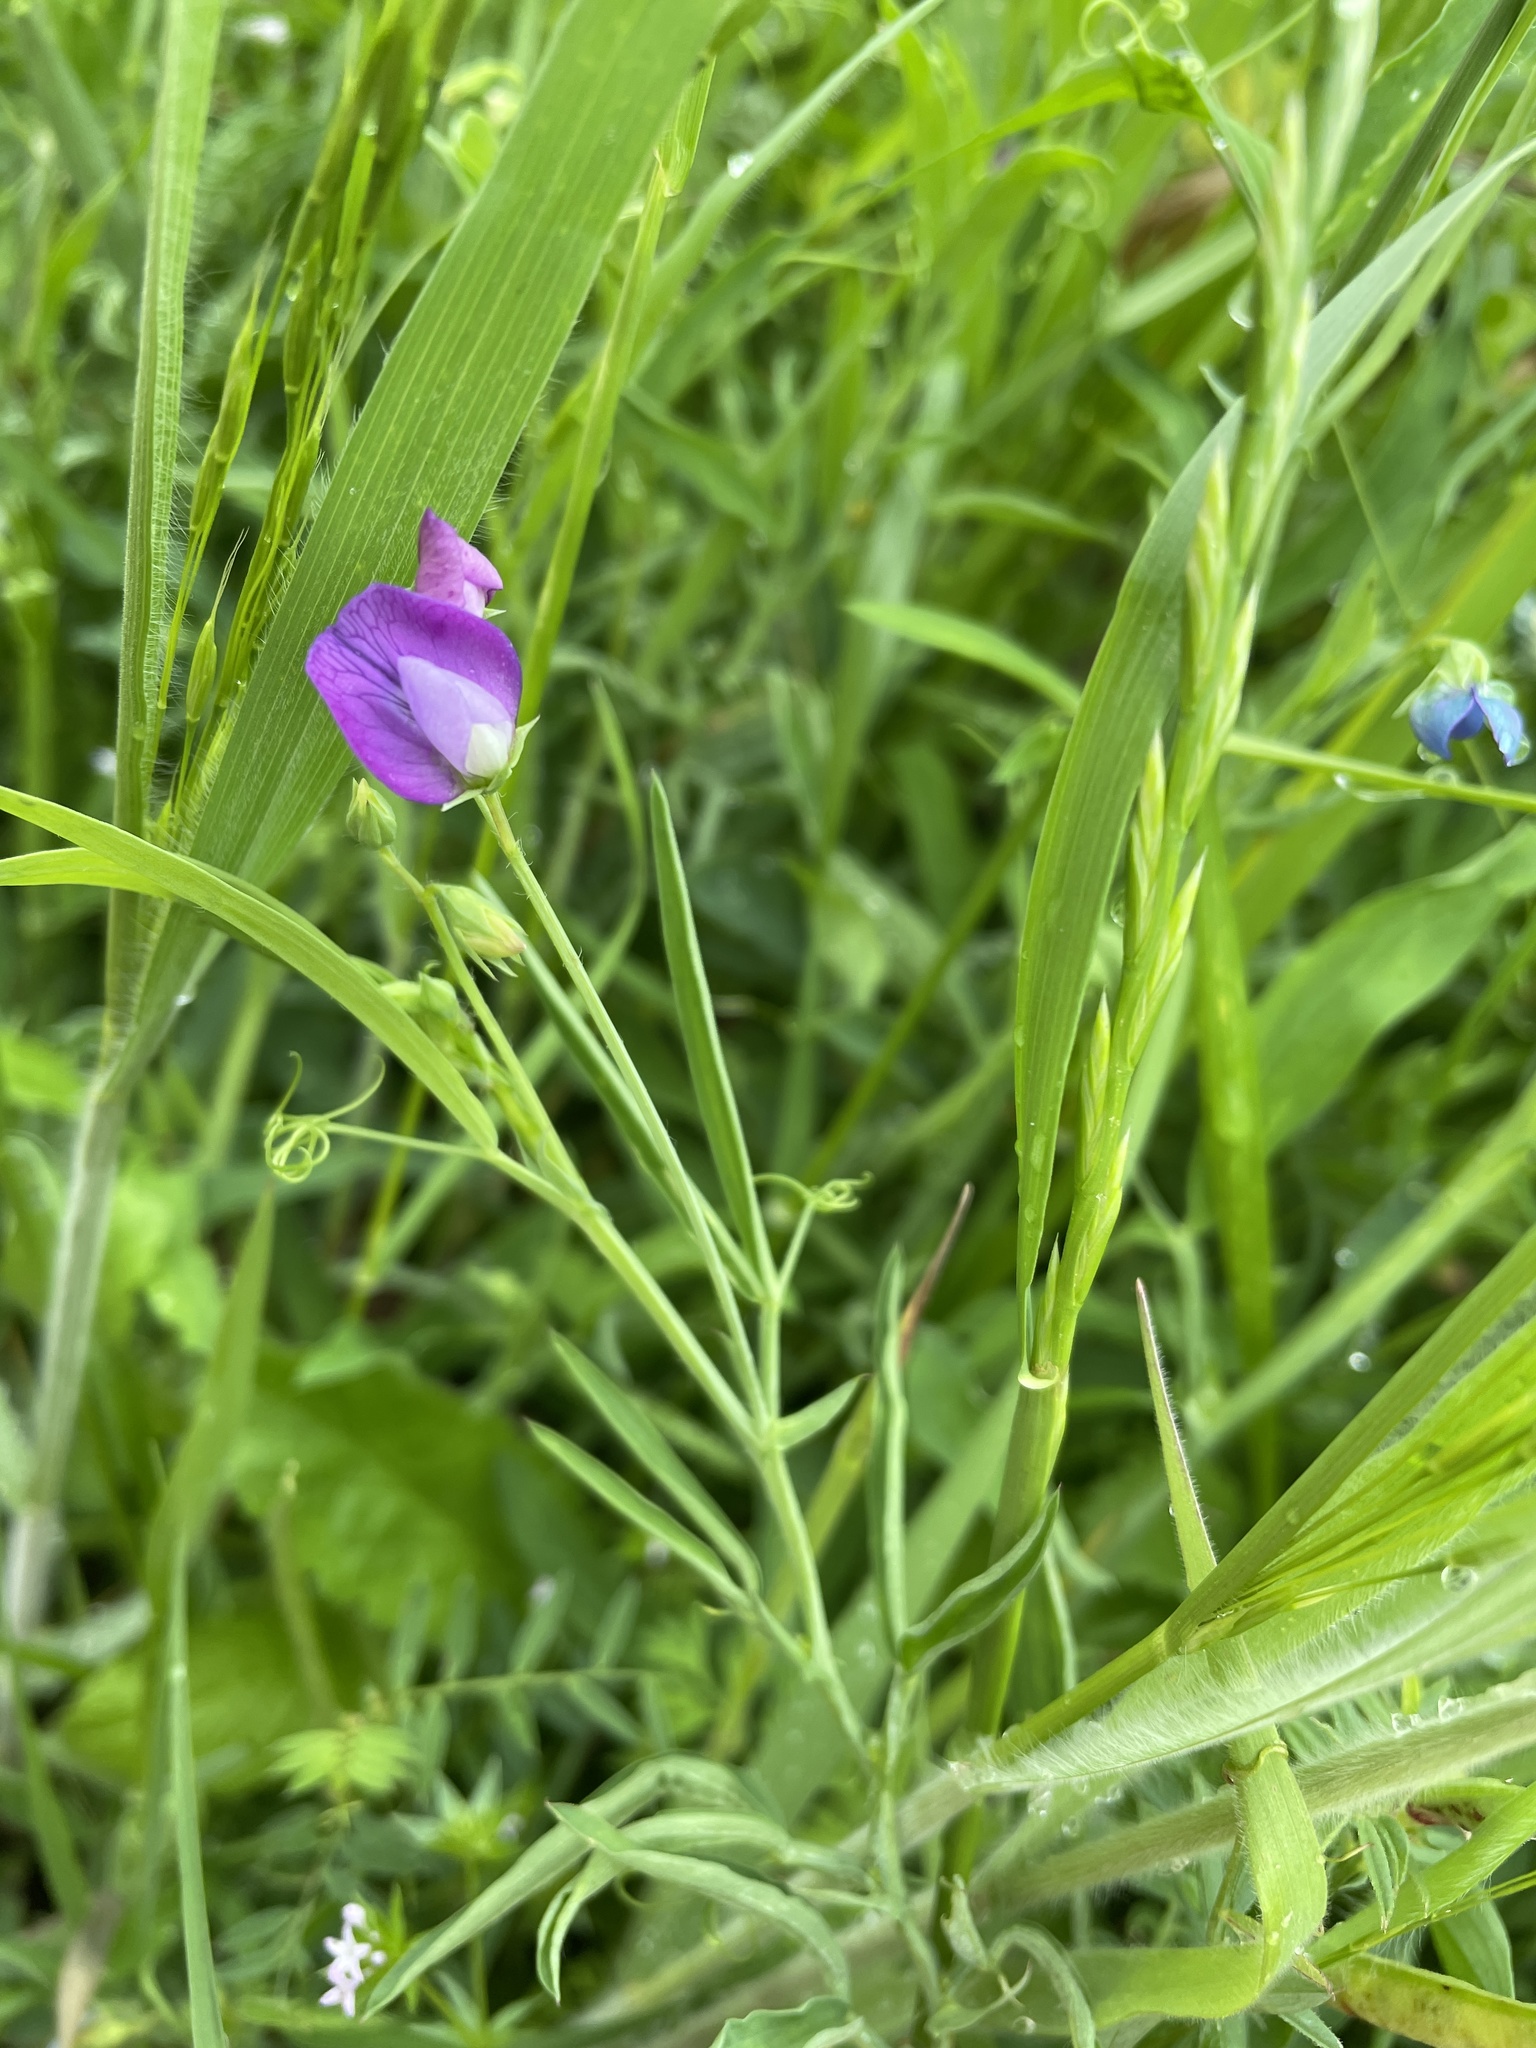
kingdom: Plantae
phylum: Tracheophyta
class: Magnoliopsida
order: Fabales
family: Fabaceae
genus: Lathyrus
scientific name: Lathyrus hirsutus
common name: Hairy vetchling
